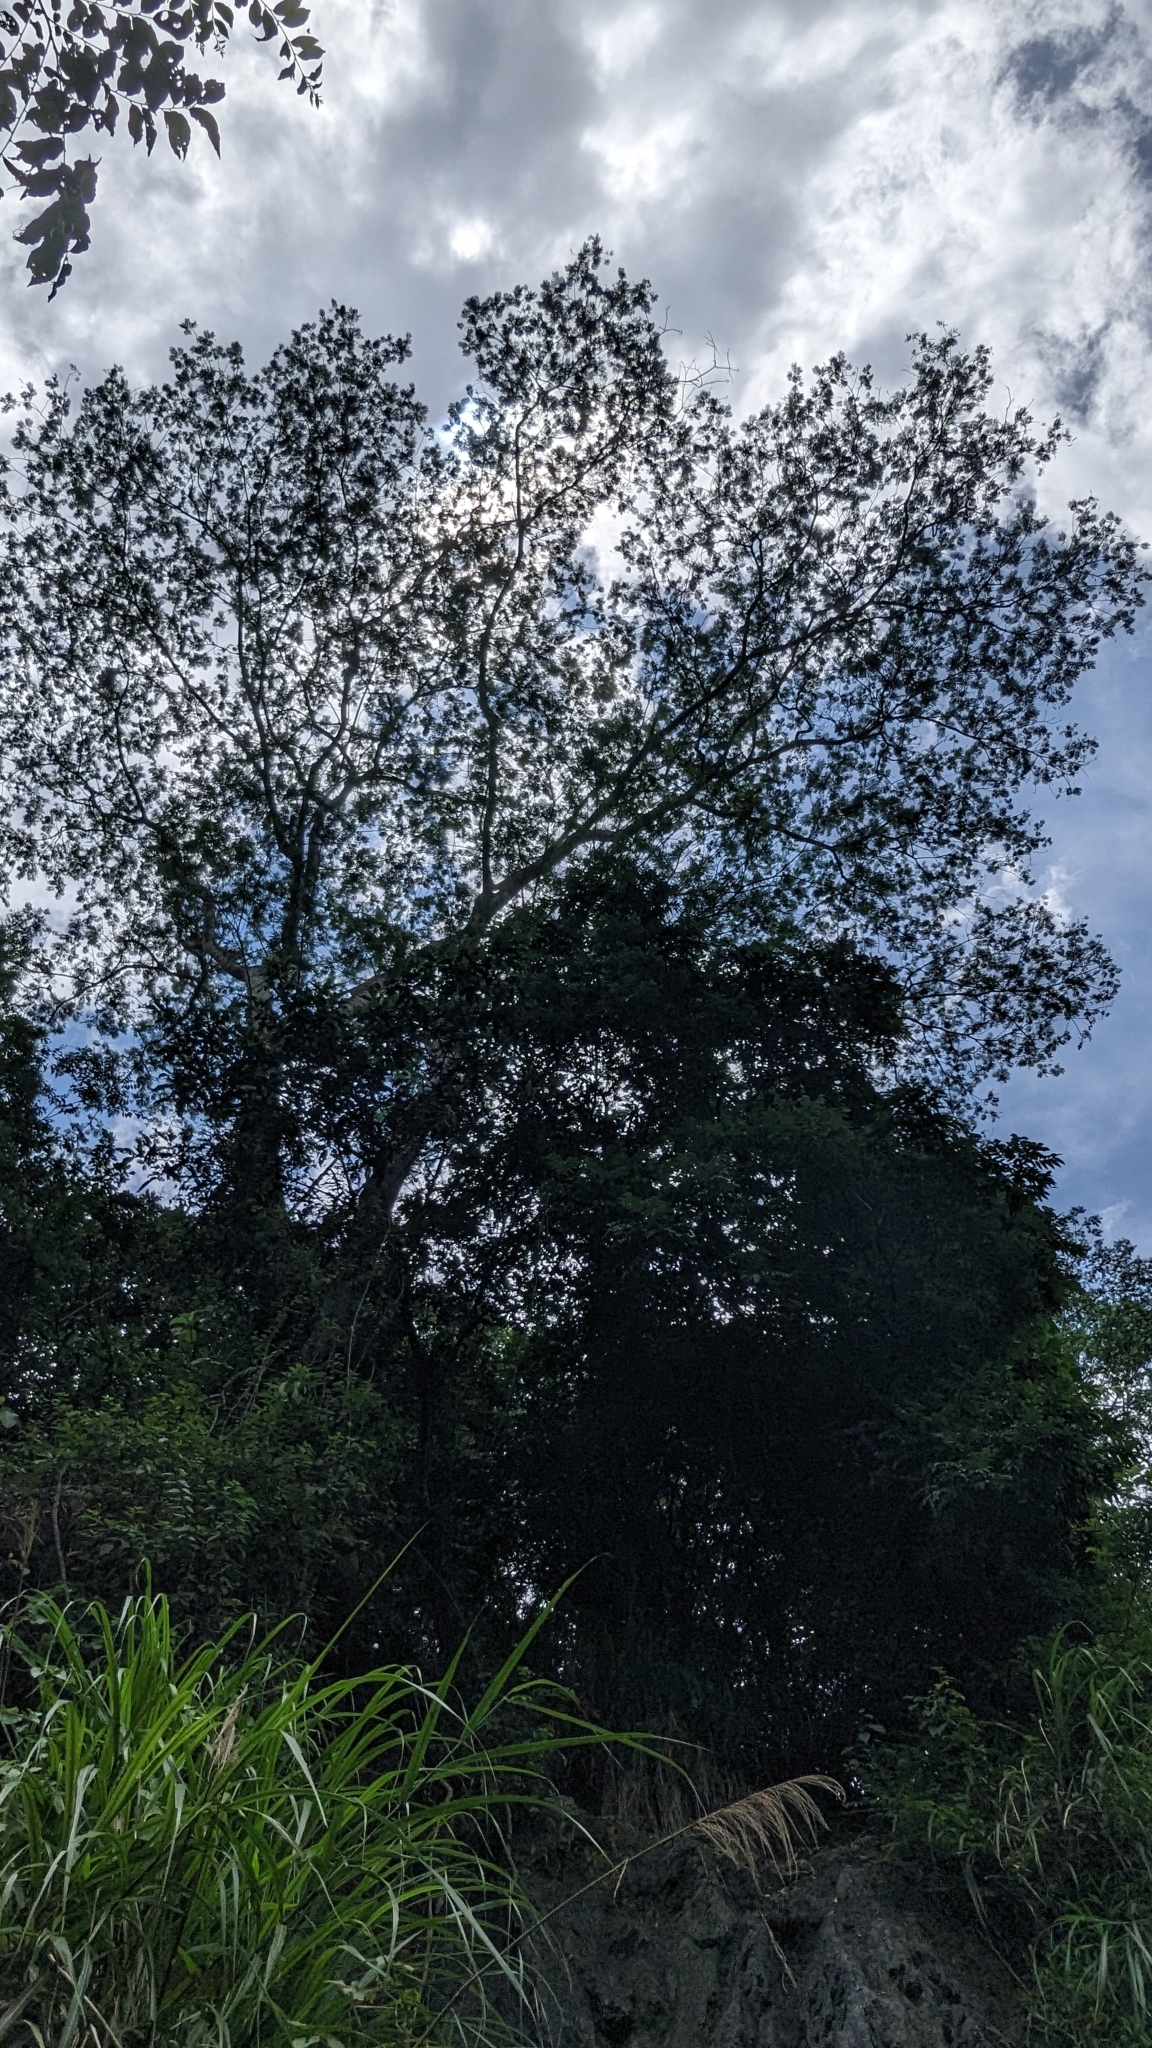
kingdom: Plantae
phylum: Tracheophyta
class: Magnoliopsida
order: Fabales
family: Fabaceae
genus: Falcataria
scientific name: Falcataria falcata
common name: Moluccan albizia
